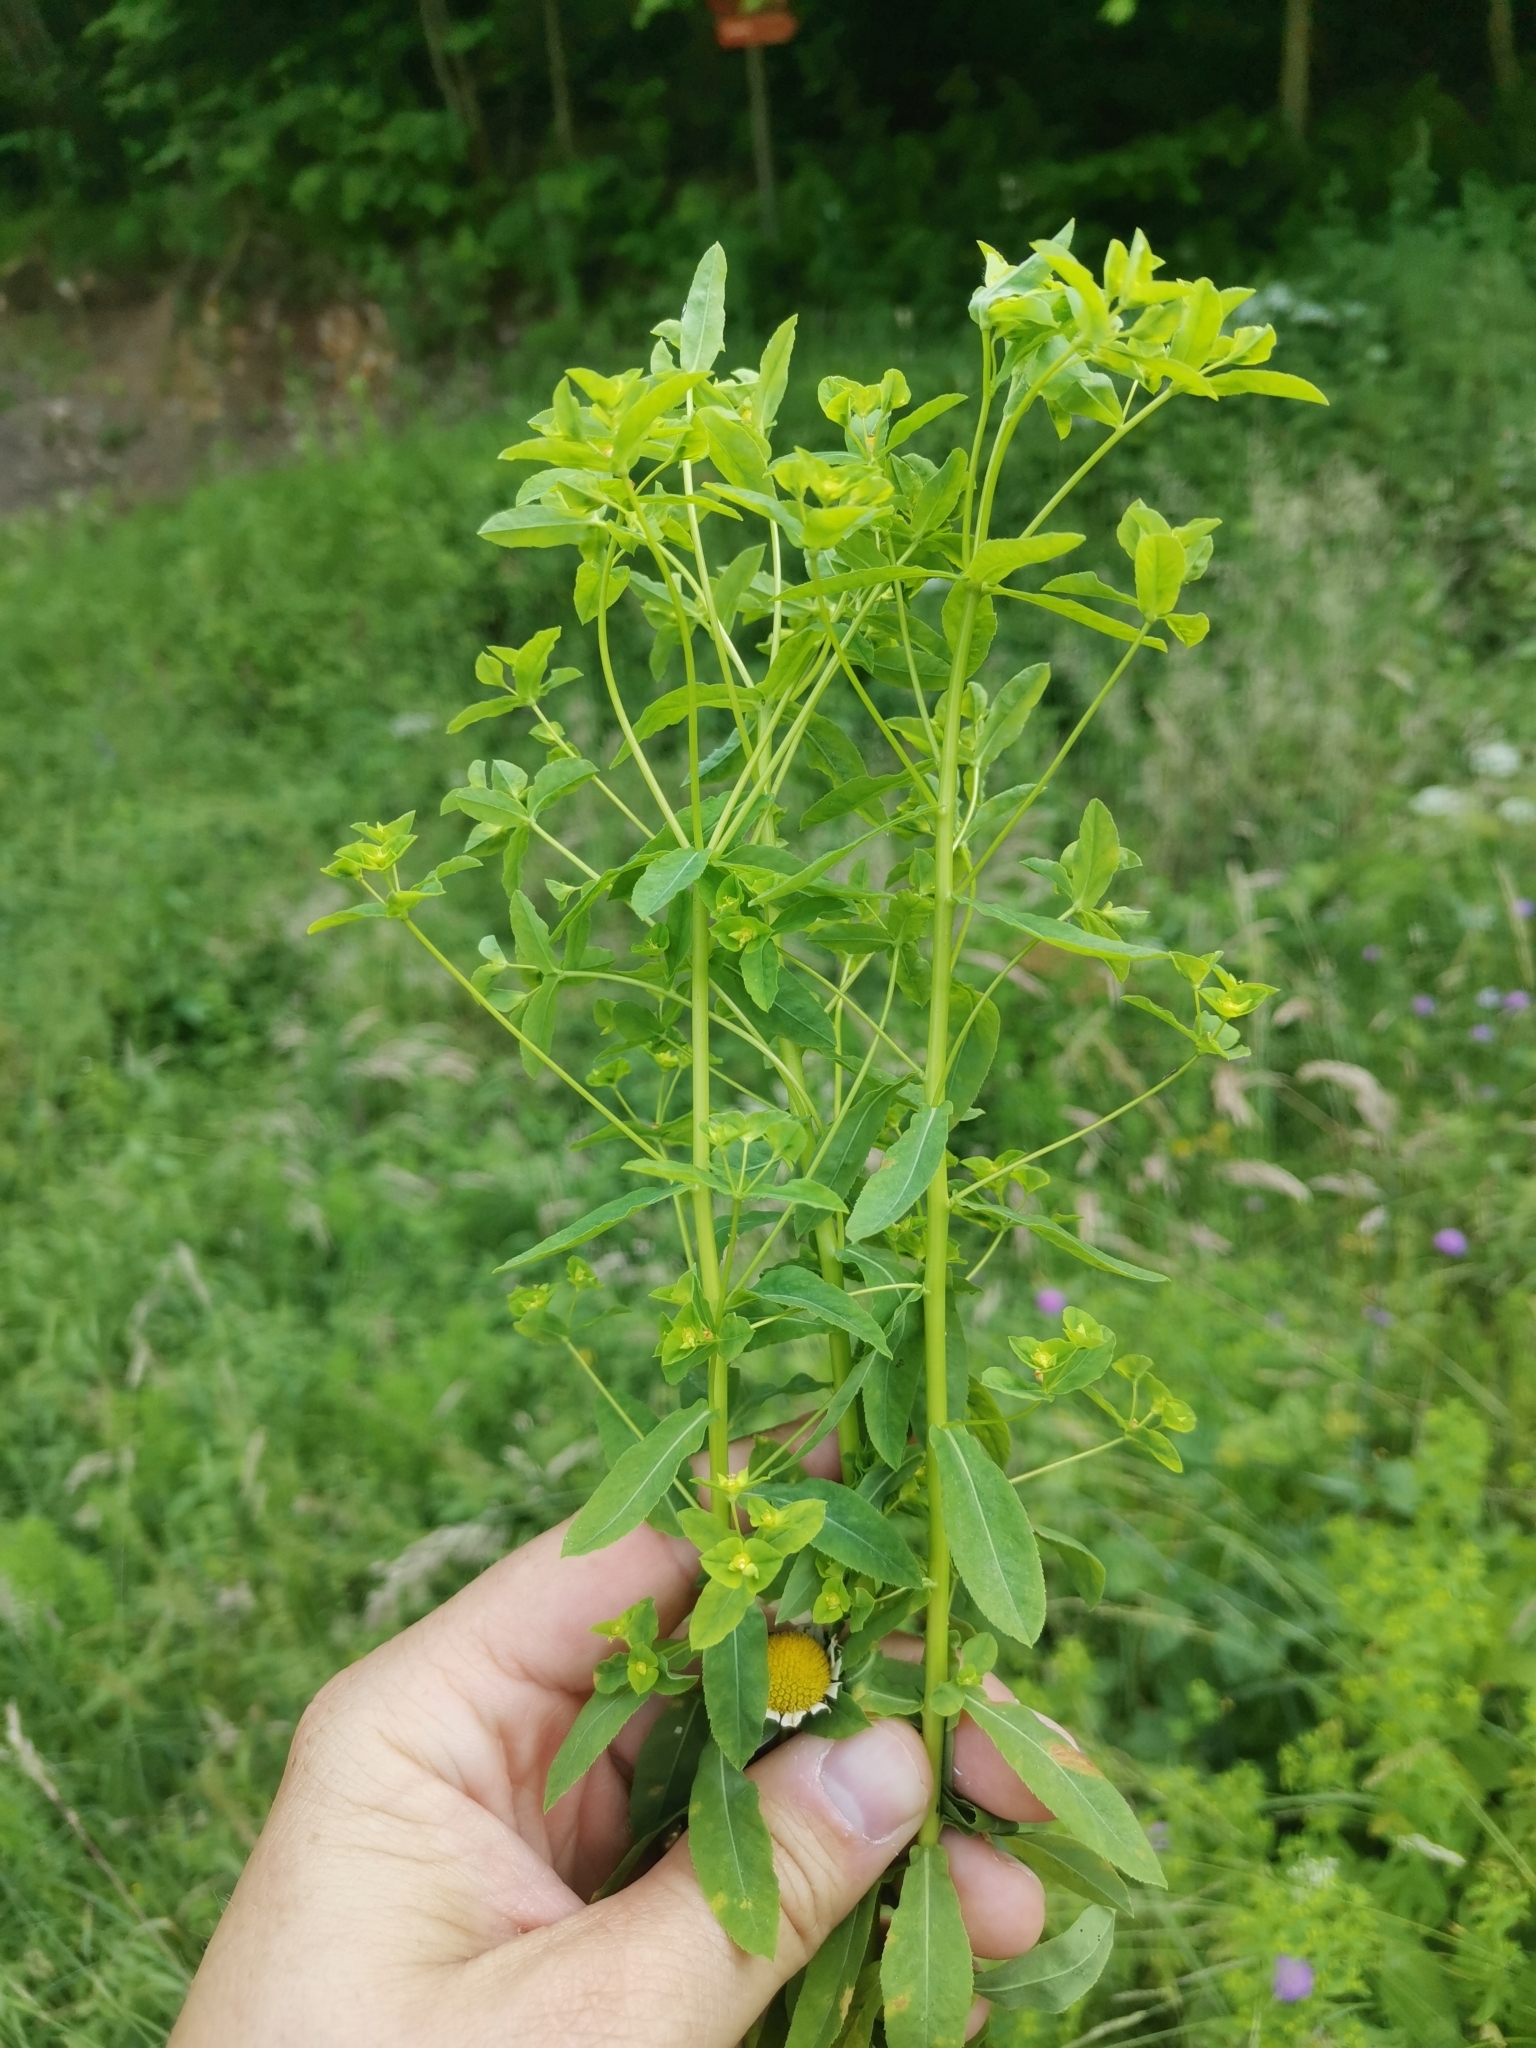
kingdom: Plantae
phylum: Tracheophyta
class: Magnoliopsida
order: Malpighiales
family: Euphorbiaceae
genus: Euphorbia
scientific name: Euphorbia stricta
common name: Upright spurge
